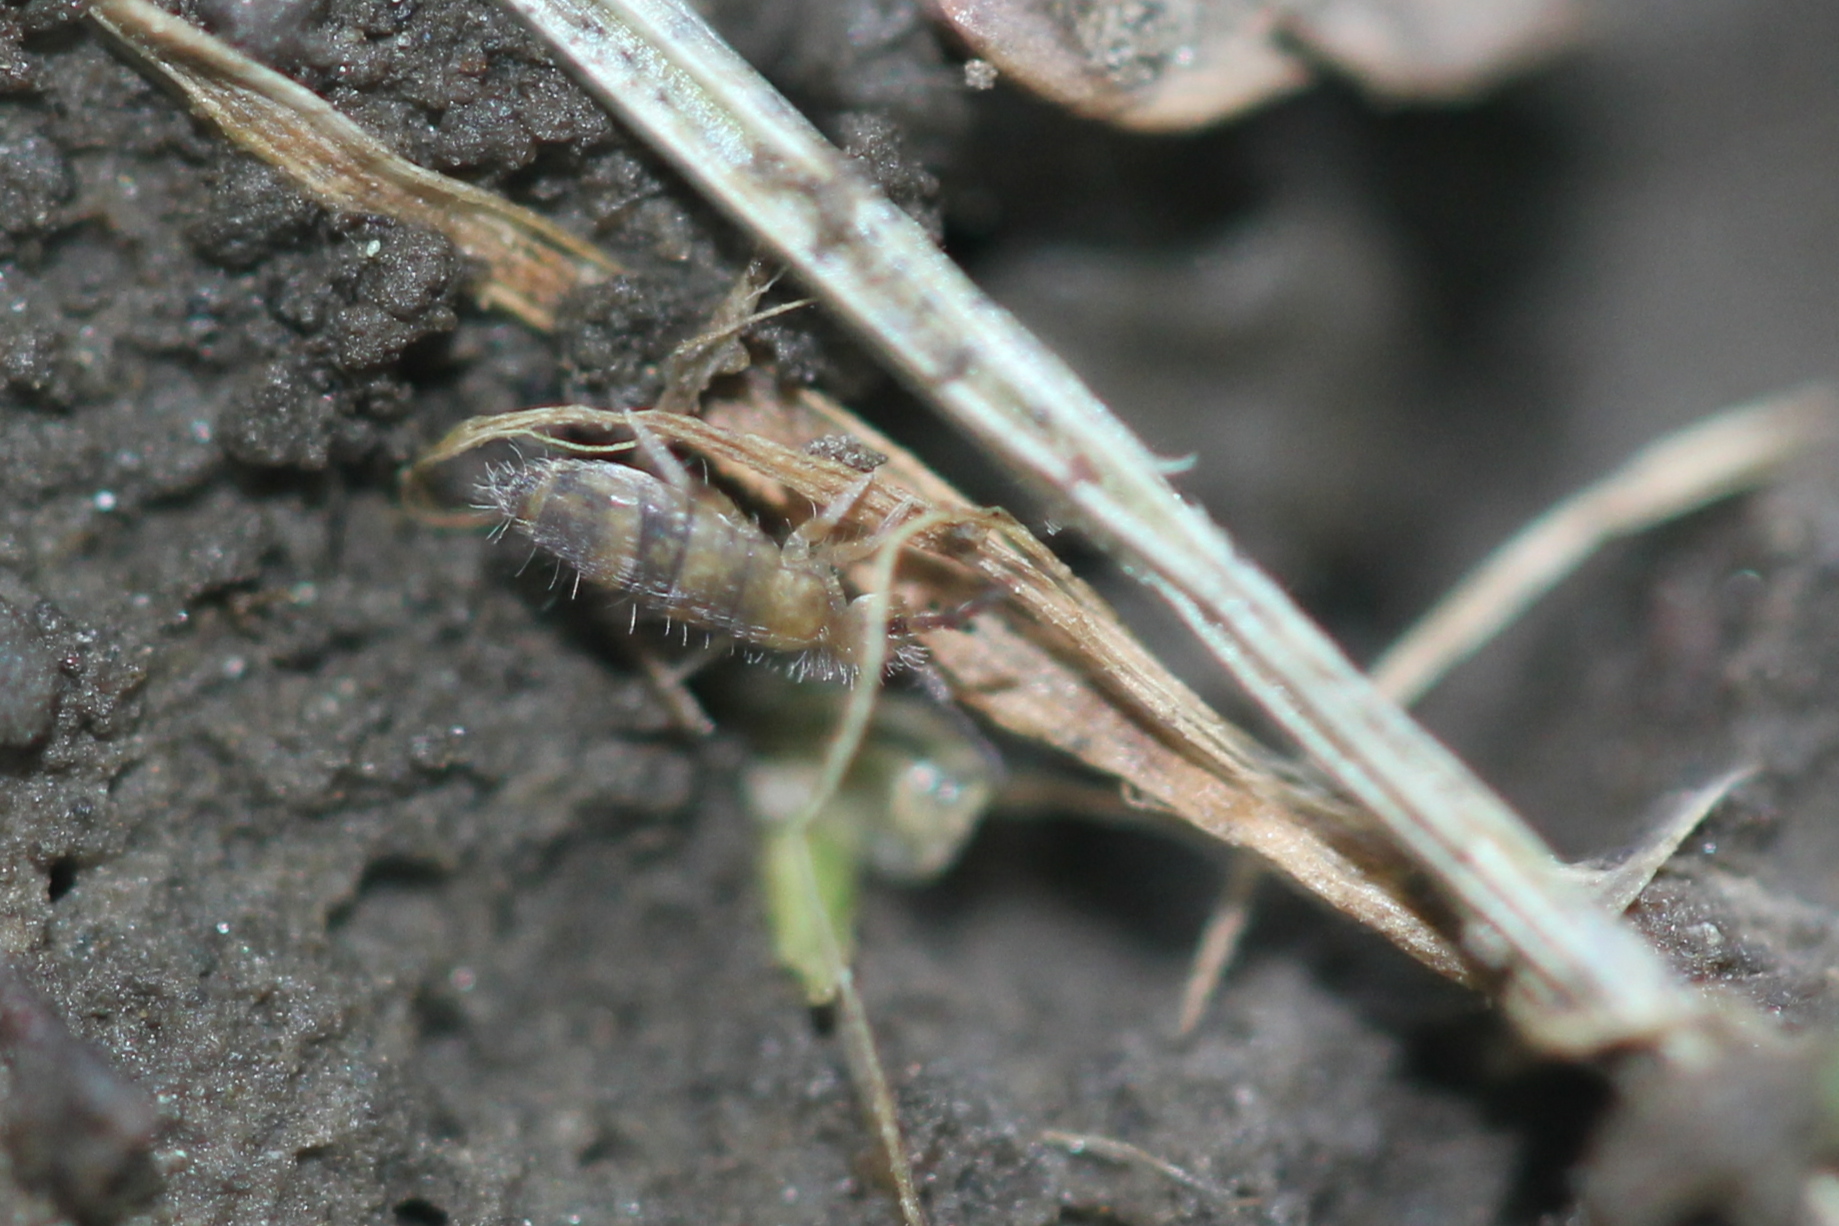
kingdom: Animalia
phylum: Arthropoda
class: Collembola
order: Entomobryomorpha
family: Entomobryidae
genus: Entomobrya
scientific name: Entomobrya assuta
